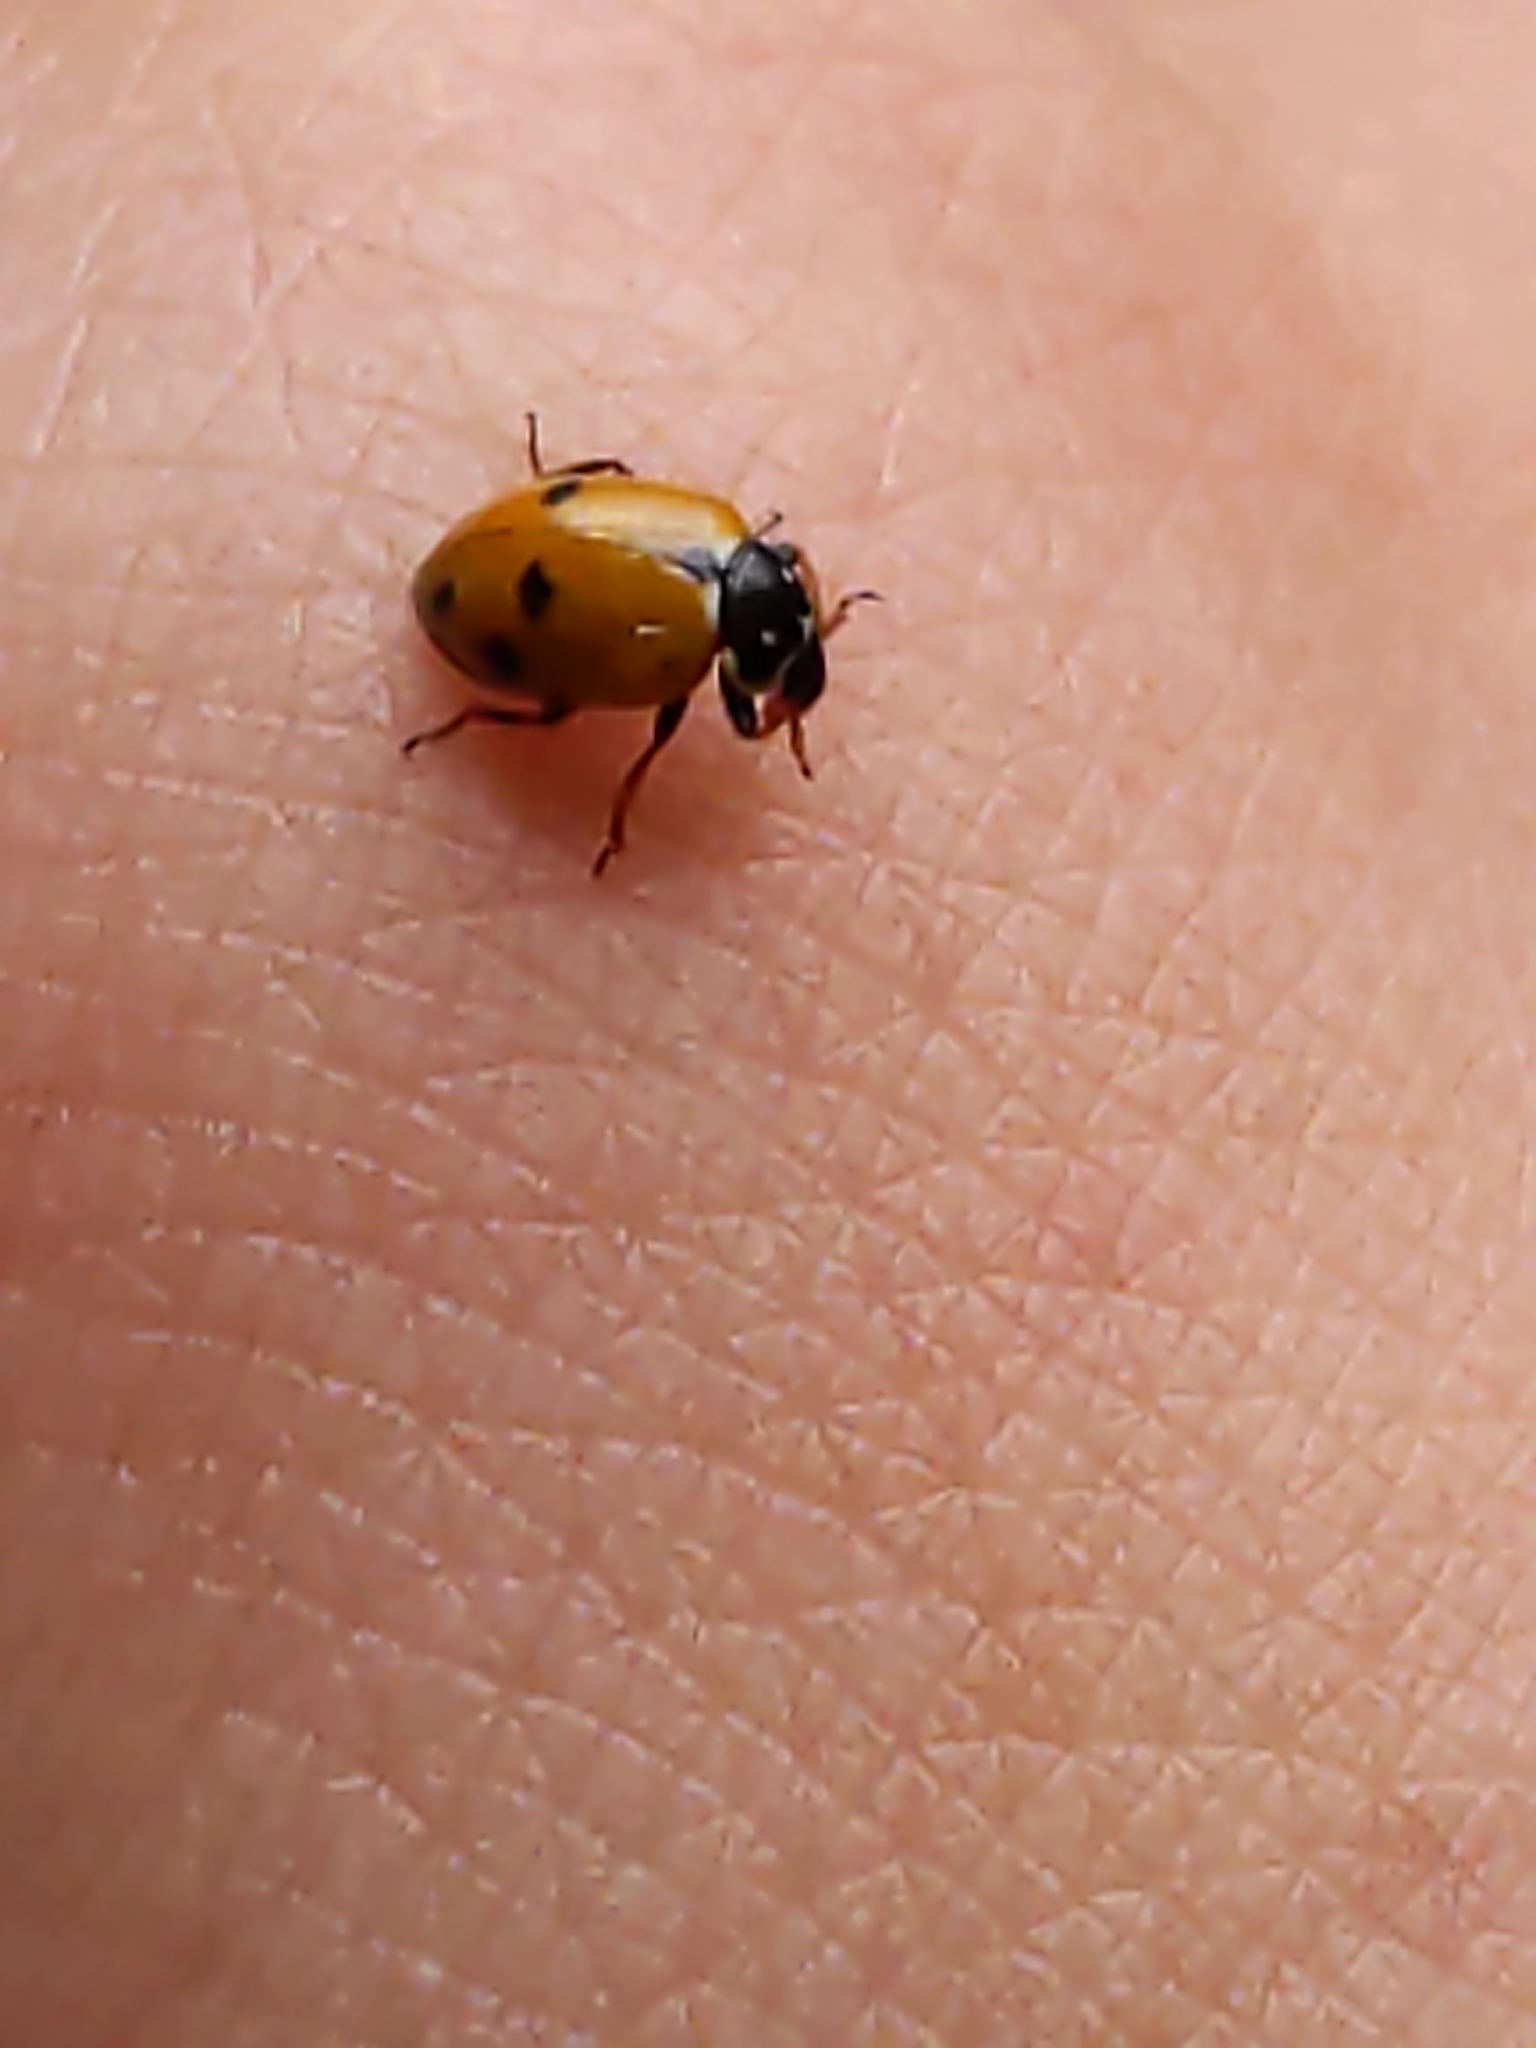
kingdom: Animalia
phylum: Arthropoda
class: Insecta
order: Coleoptera
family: Coccinellidae
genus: Hippodamia
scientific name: Hippodamia variegata
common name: Ladybird beetle
